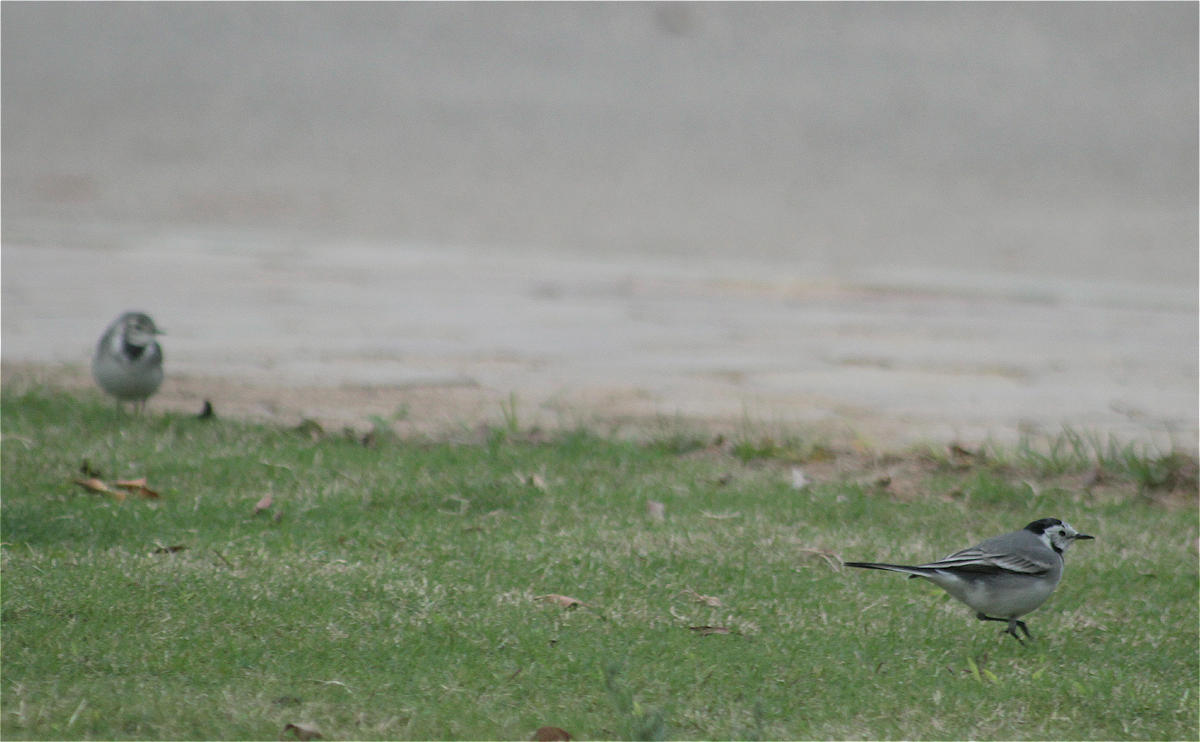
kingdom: Animalia
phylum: Chordata
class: Aves
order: Passeriformes
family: Motacillidae
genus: Motacilla
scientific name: Motacilla alba
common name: White wagtail
